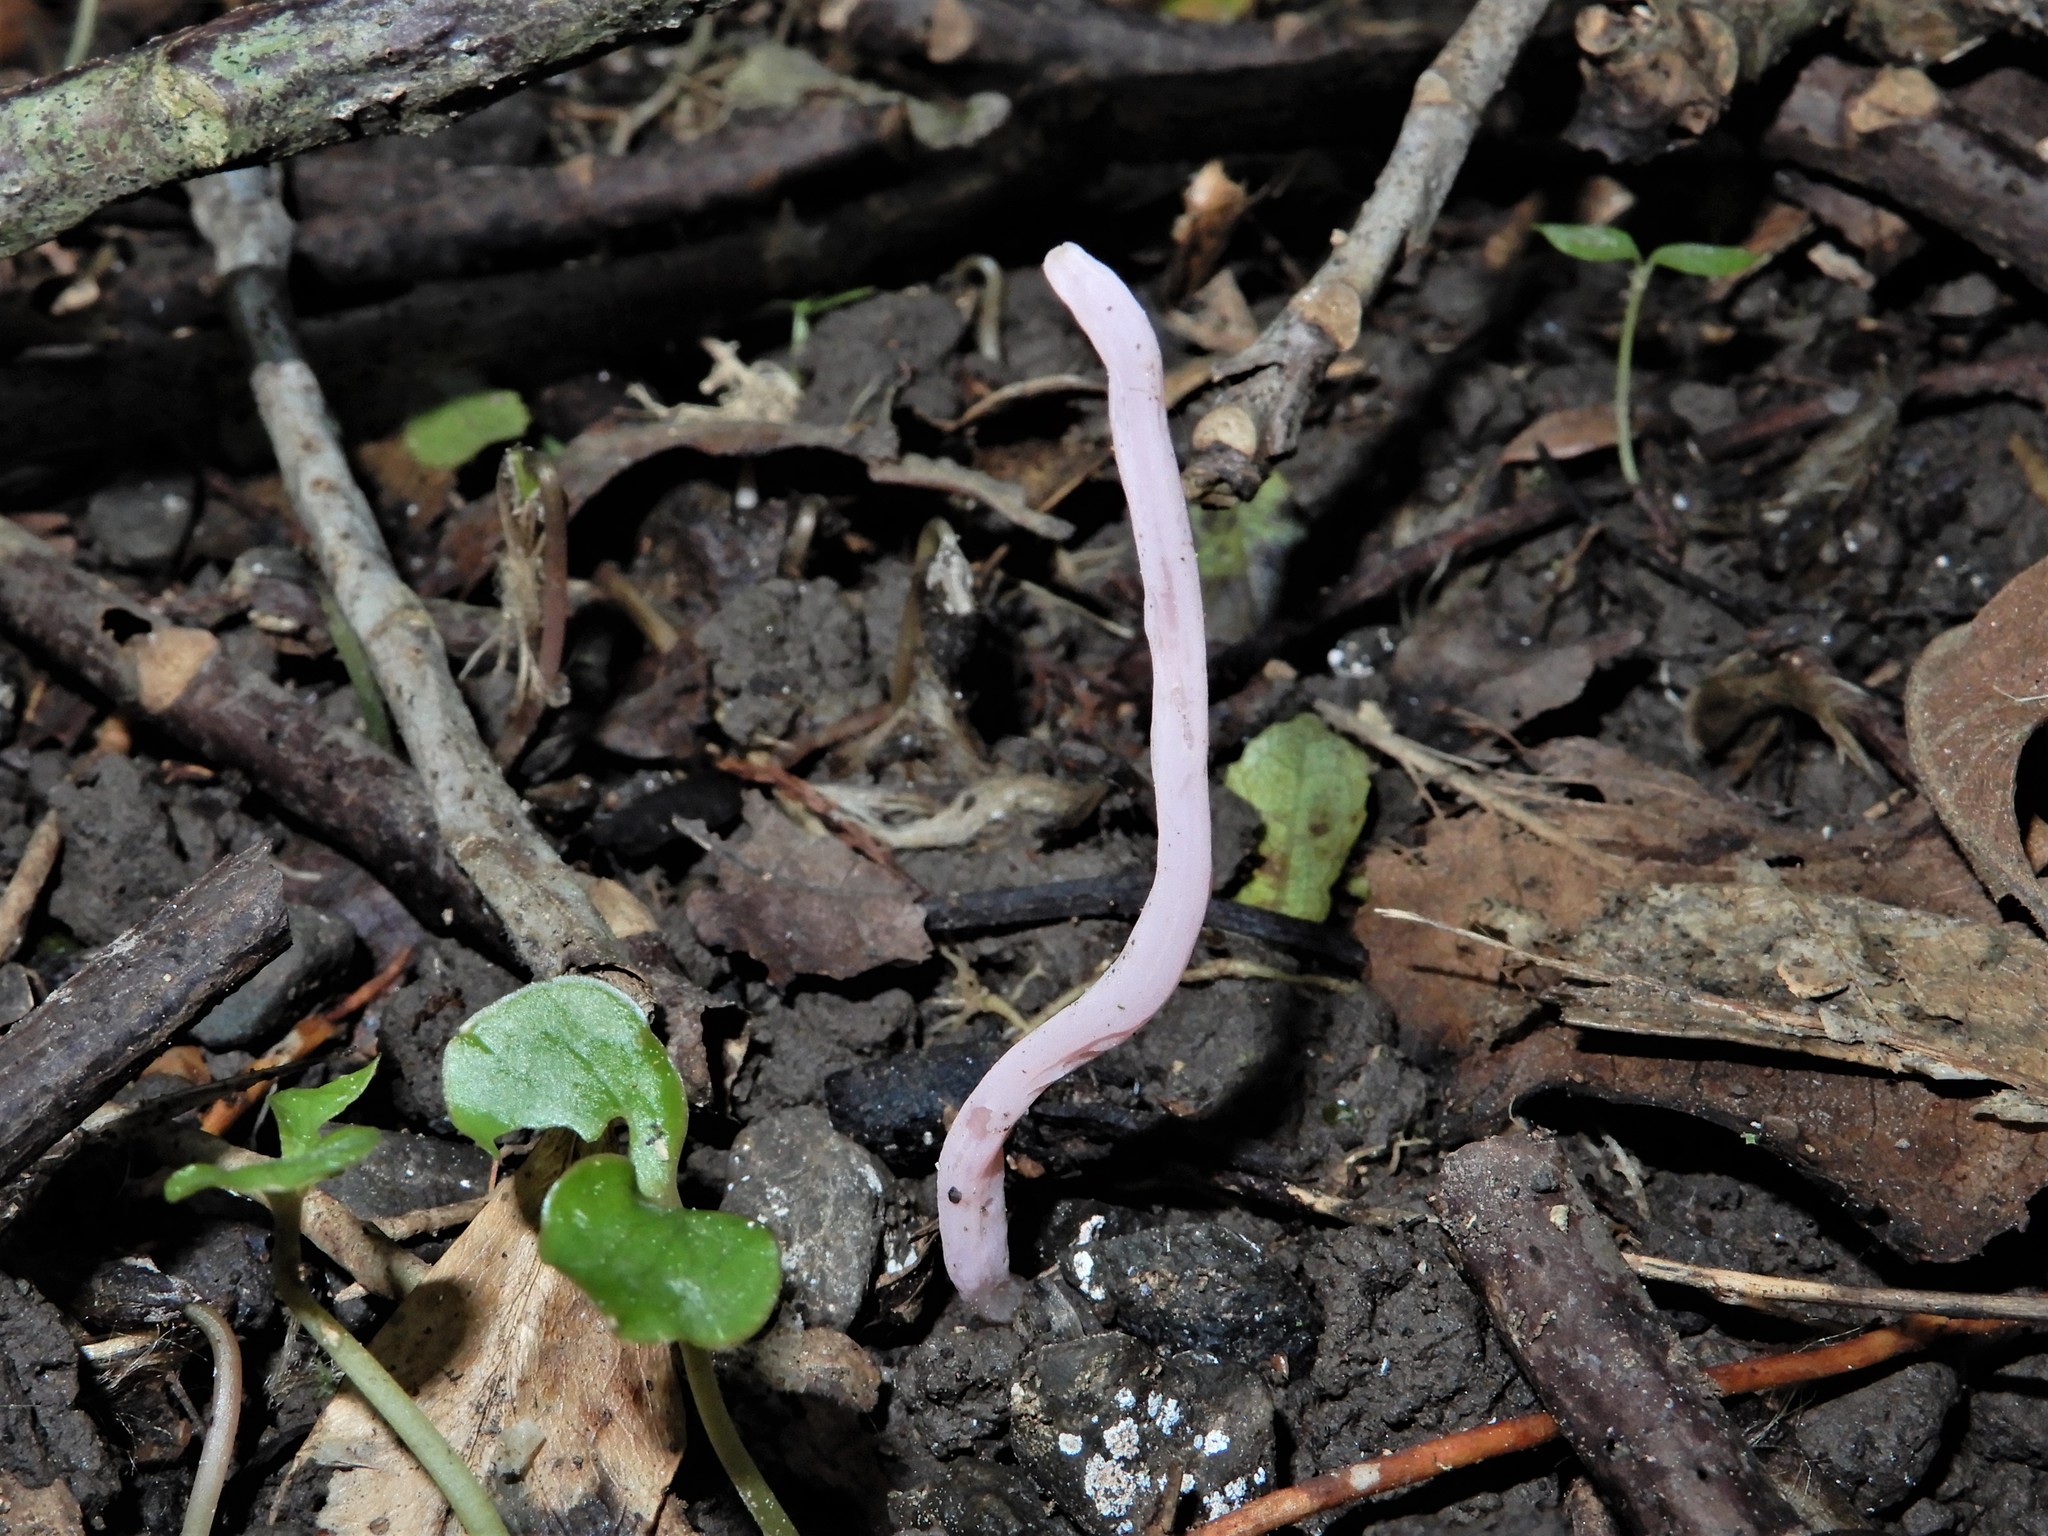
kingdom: Fungi
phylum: Basidiomycota
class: Agaricomycetes
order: Agaricales
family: Clavariaceae
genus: Clavaria
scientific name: Clavaria subviolacea
